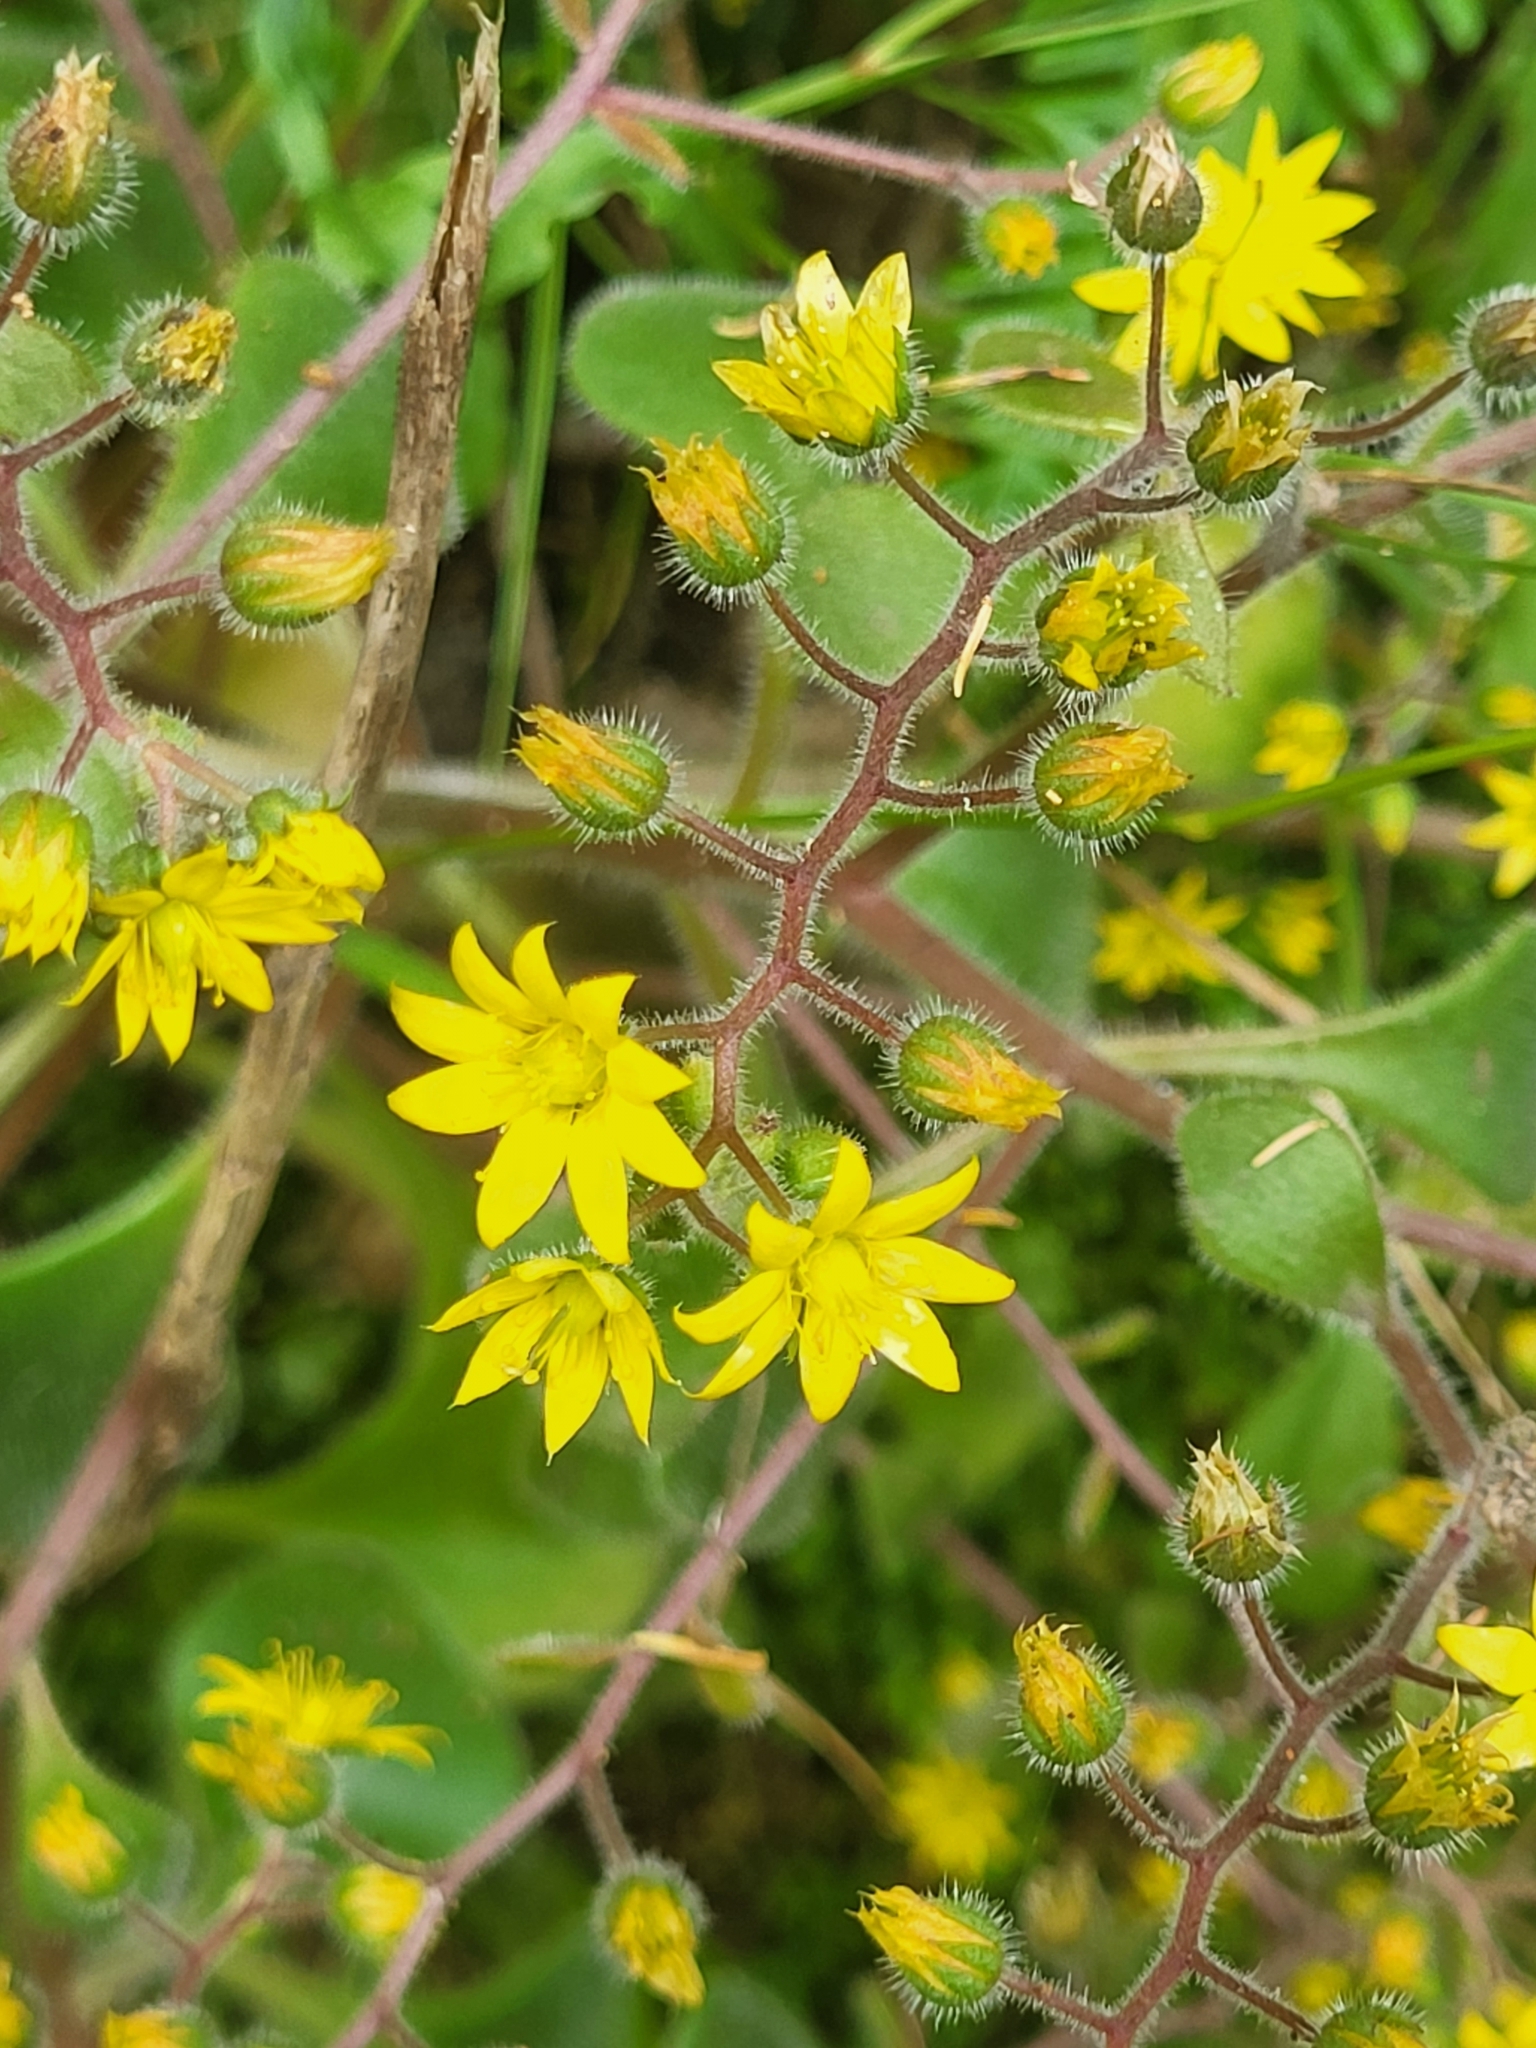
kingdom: Plantae
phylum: Tracheophyta
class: Magnoliopsida
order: Saxifragales
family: Crassulaceae
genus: Aichryson
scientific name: Aichryson villosum
